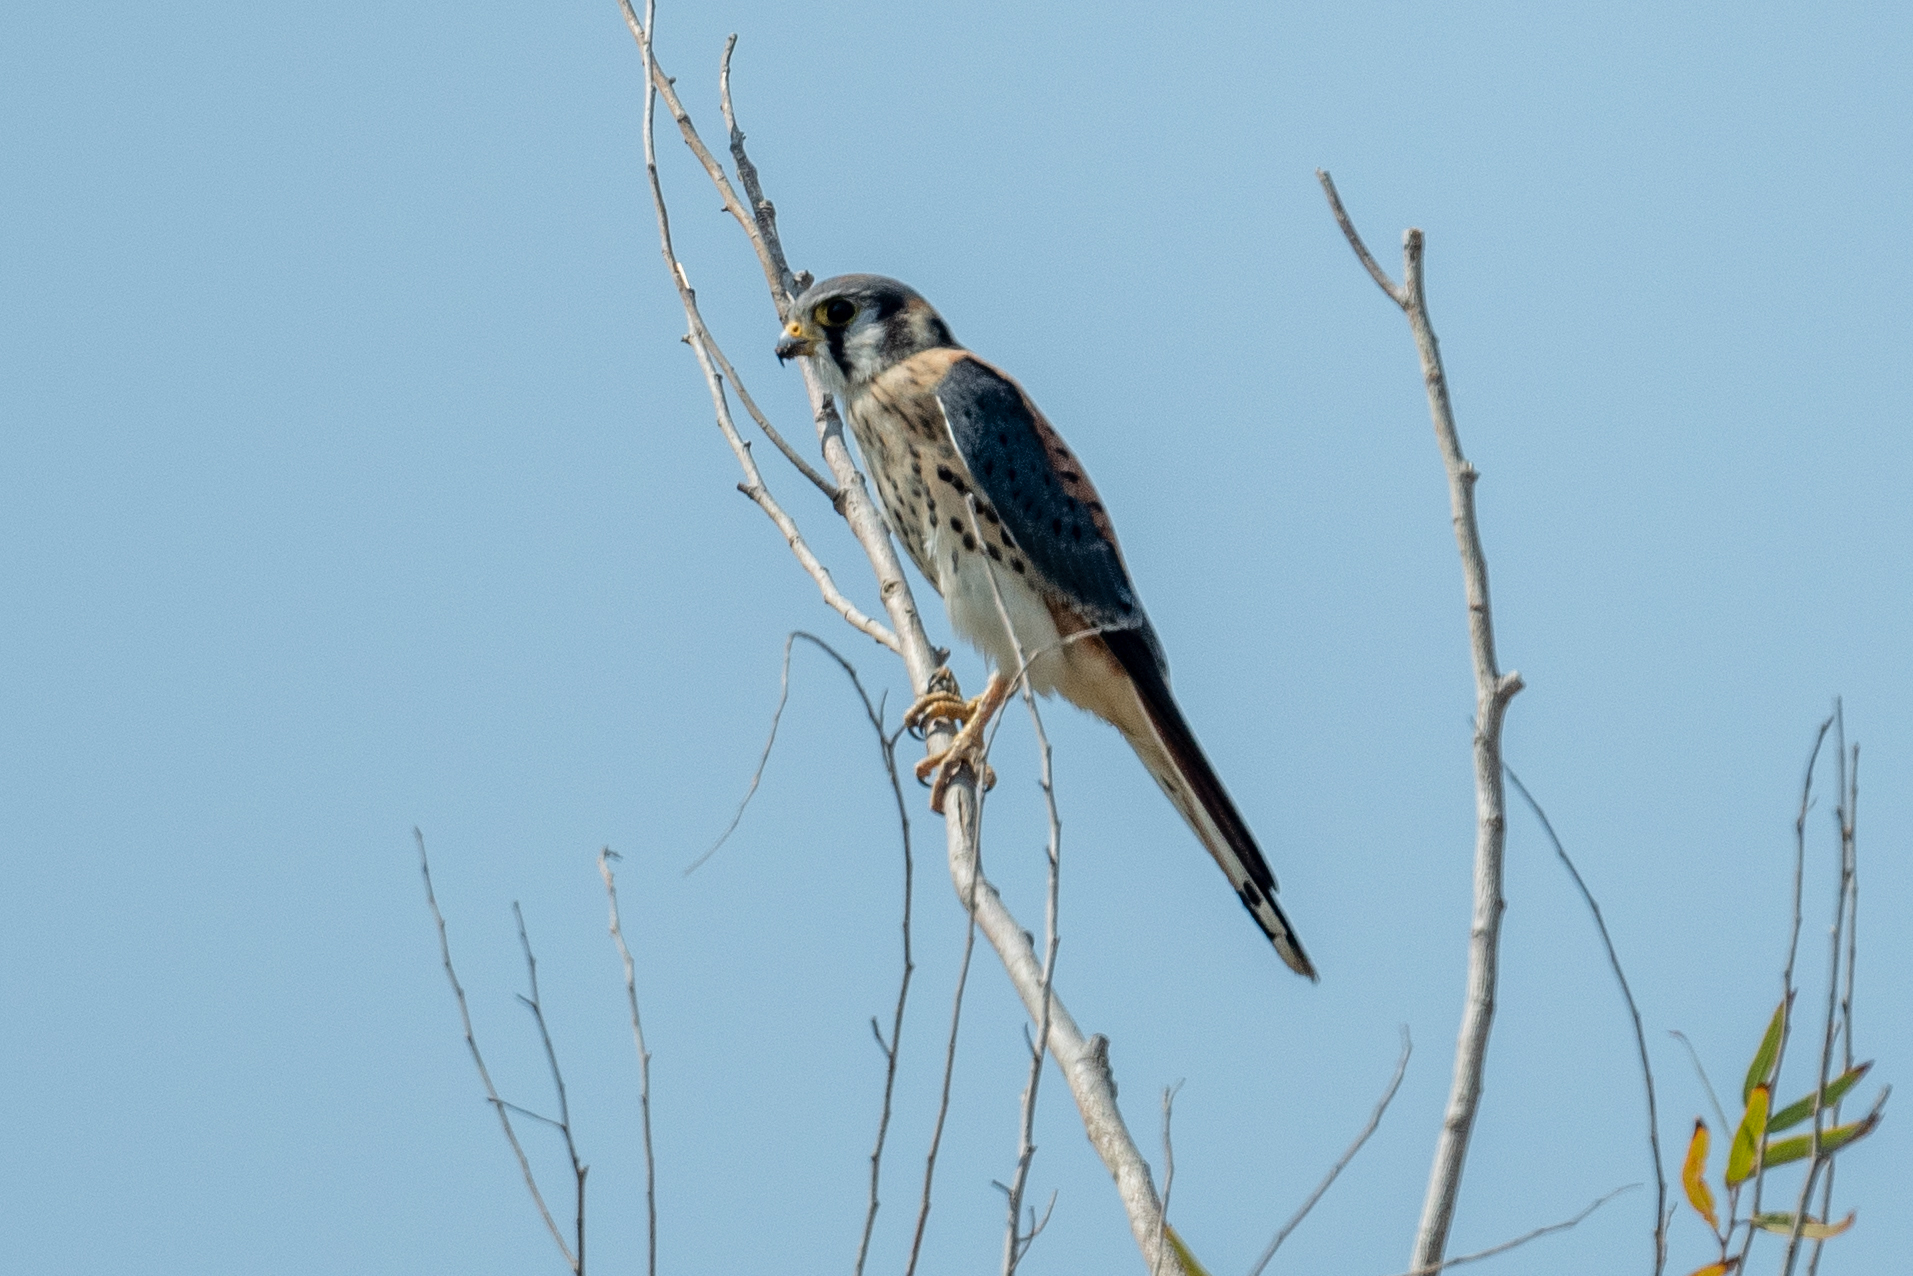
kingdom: Animalia
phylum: Chordata
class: Aves
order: Falconiformes
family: Falconidae
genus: Falco
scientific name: Falco sparverius
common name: American kestrel
